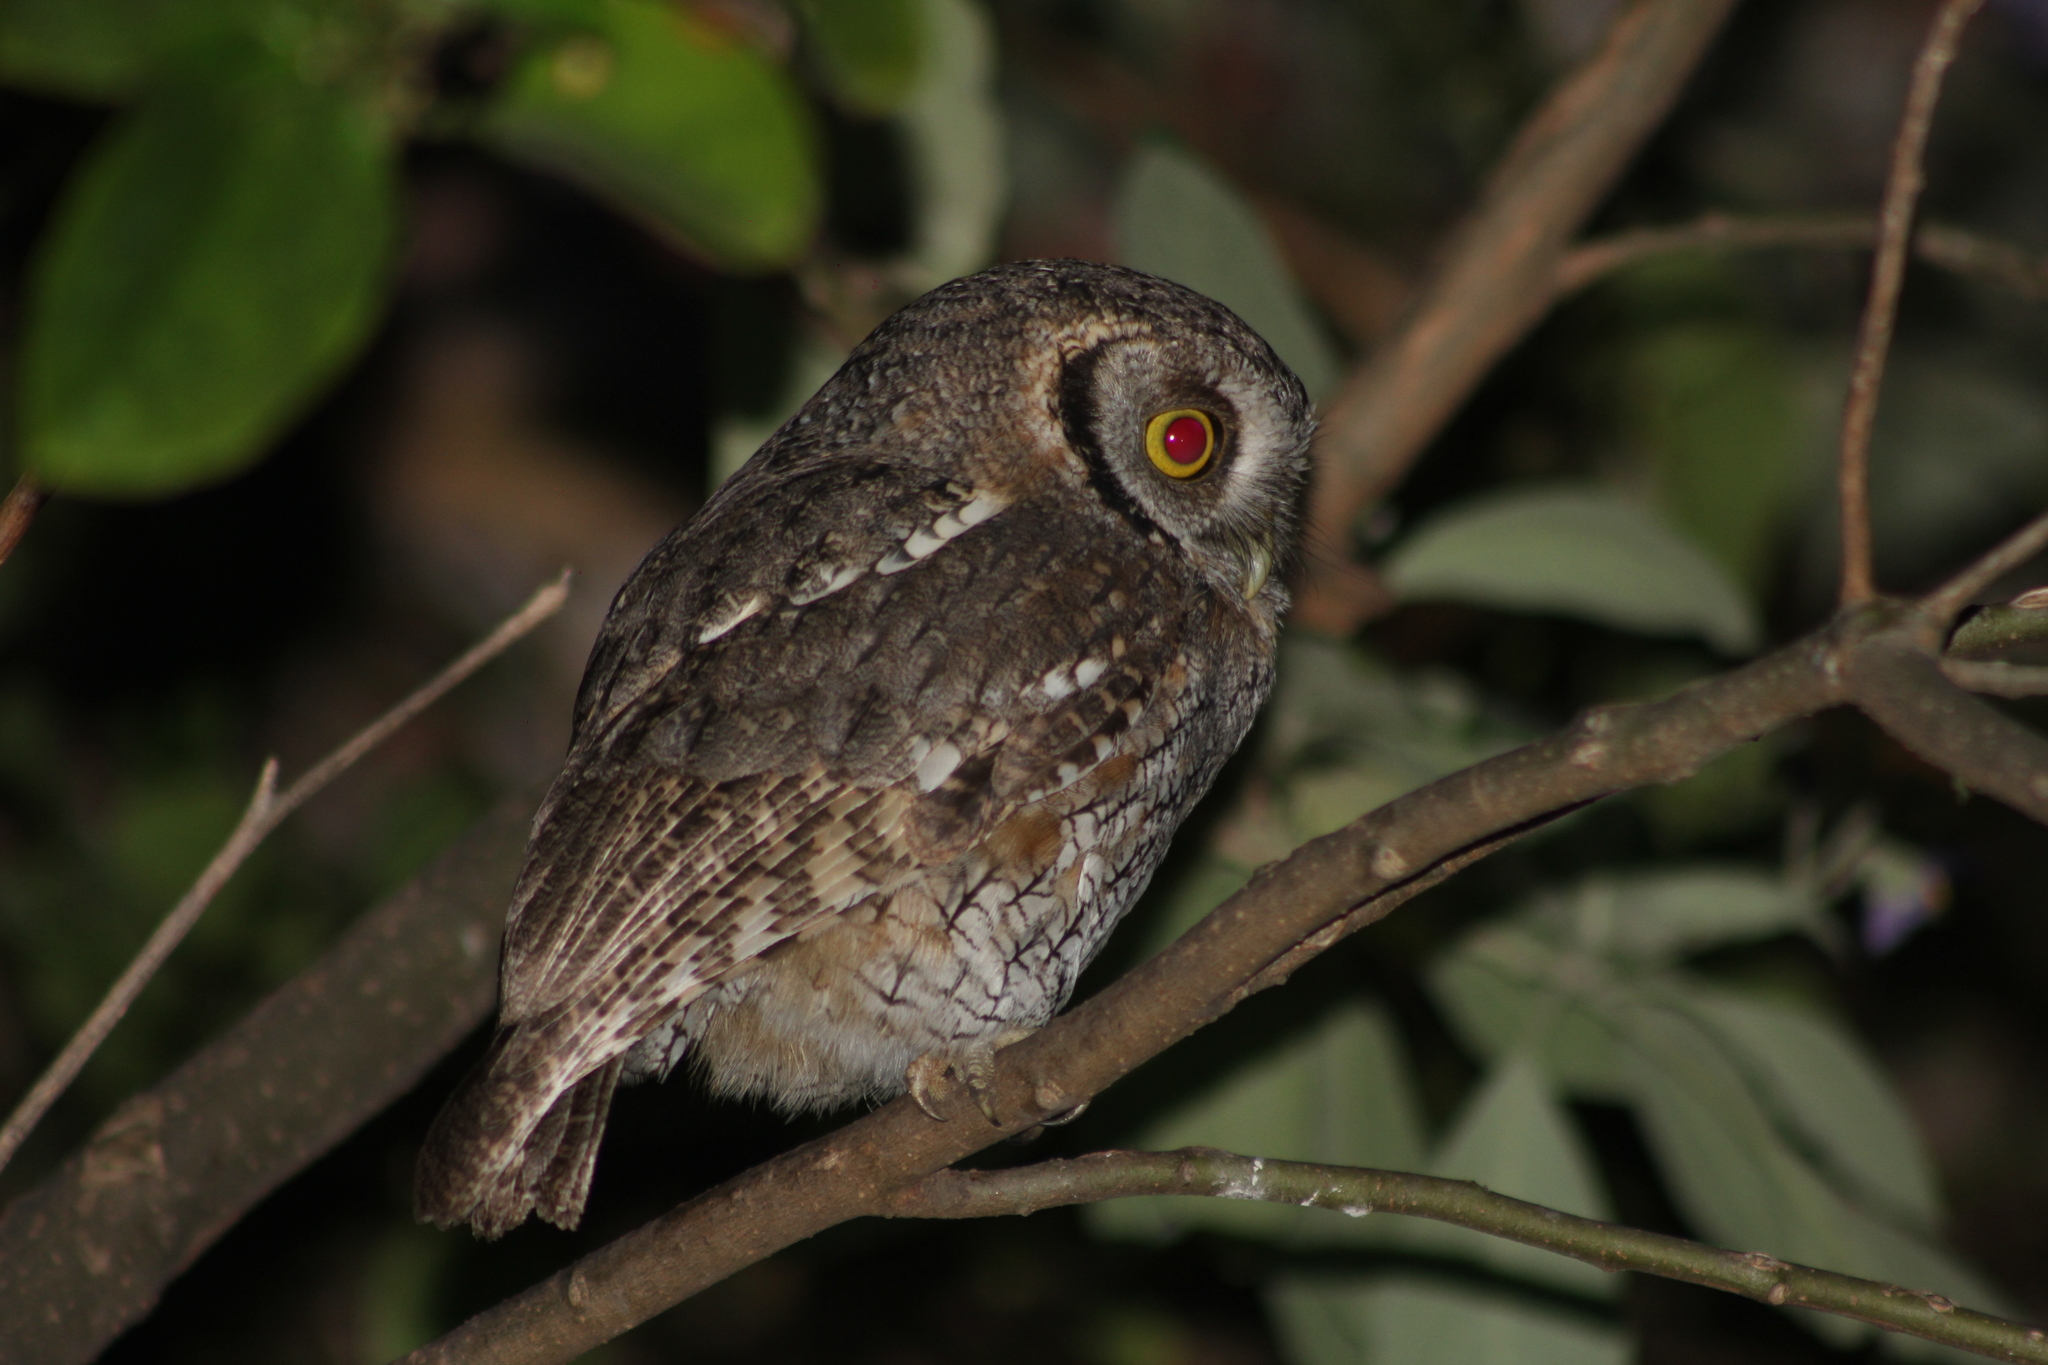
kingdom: Animalia
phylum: Chordata
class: Aves
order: Strigiformes
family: Strigidae
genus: Megascops
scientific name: Megascops choliba
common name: Tropical screech-owl
